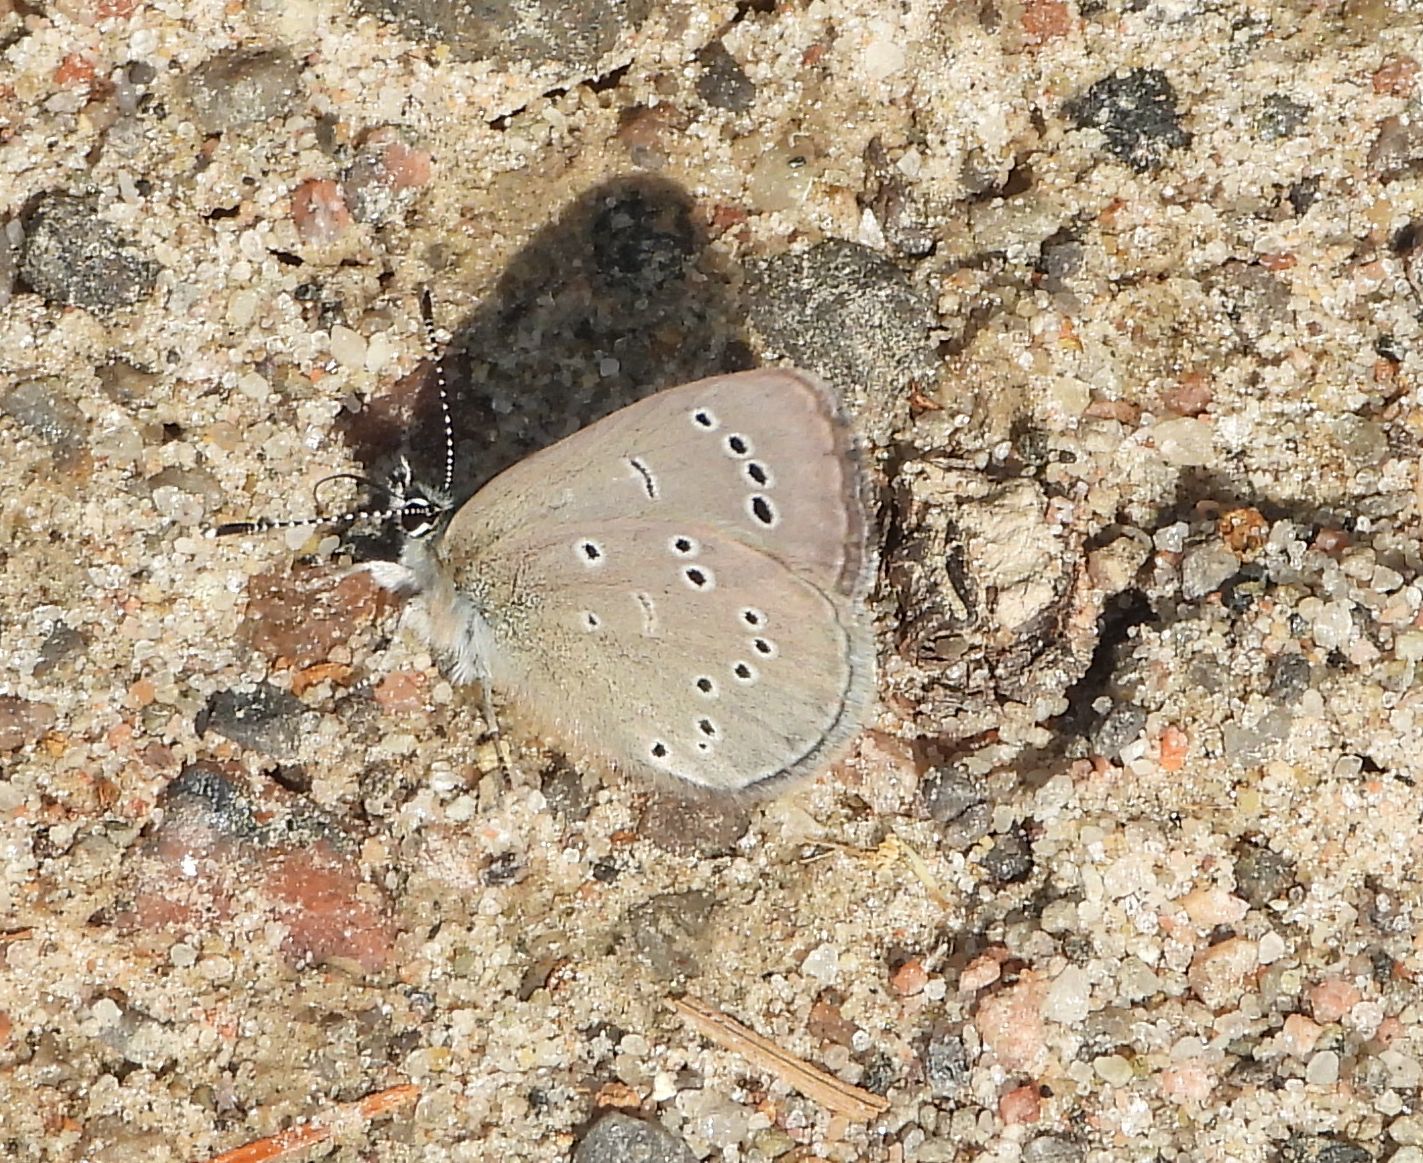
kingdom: Animalia
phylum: Arthropoda
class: Insecta
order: Lepidoptera
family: Lycaenidae
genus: Glaucopsyche
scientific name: Glaucopsyche lygdamus
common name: Silvery blue
